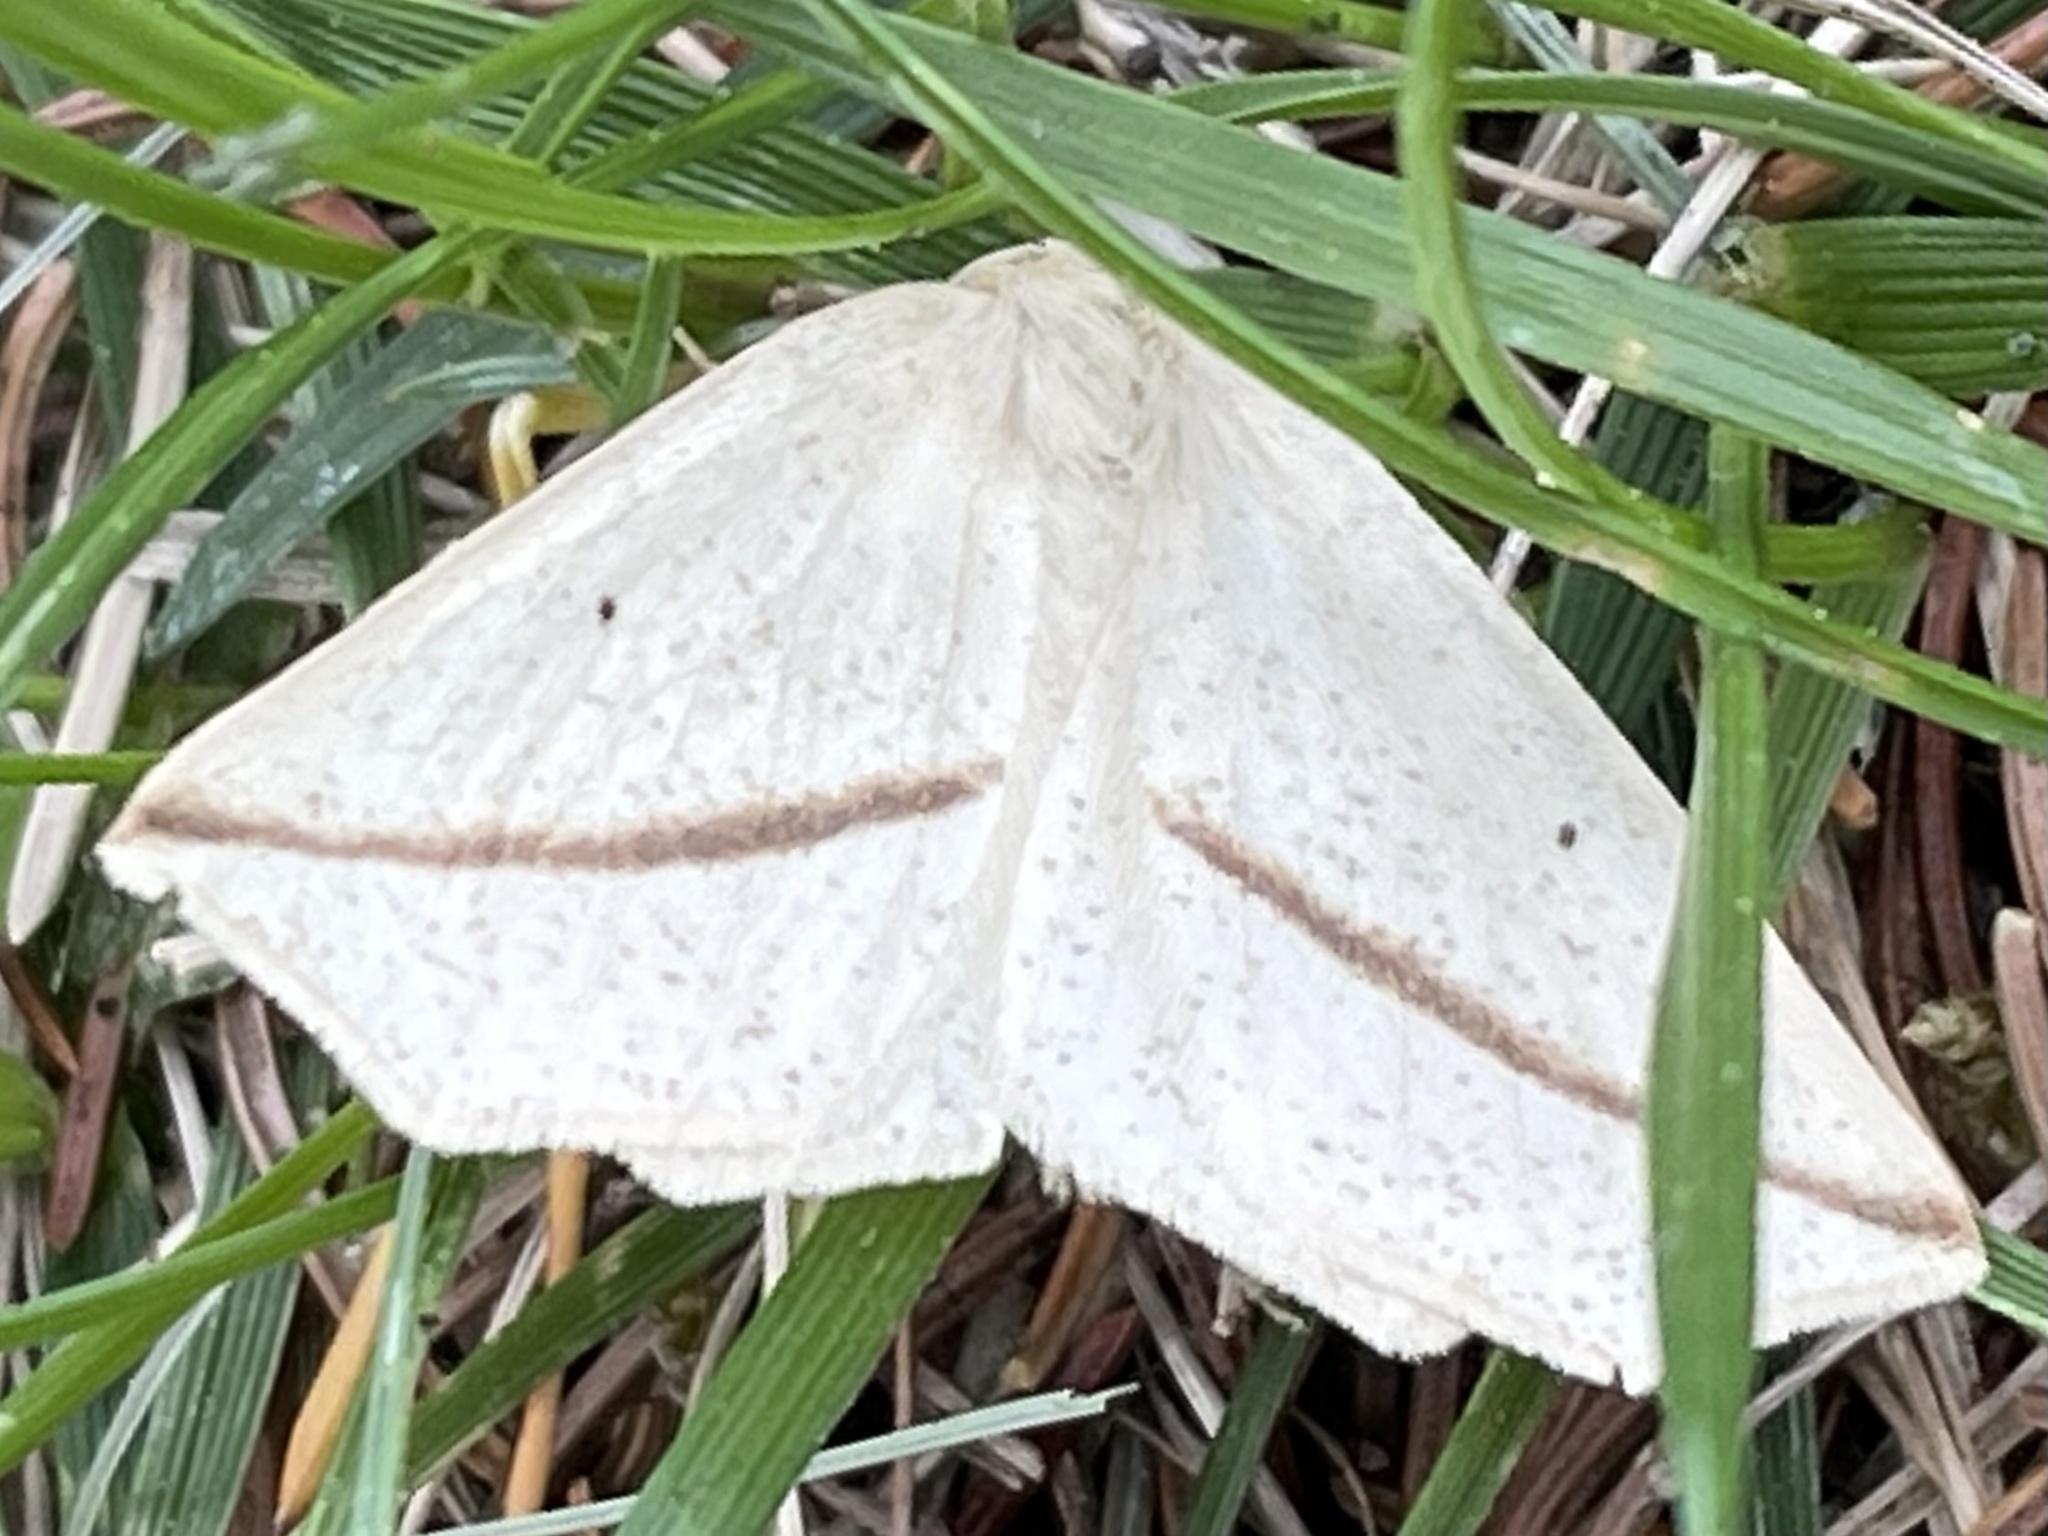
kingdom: Animalia
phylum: Arthropoda
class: Insecta
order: Lepidoptera
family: Geometridae
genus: Tetracis
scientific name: Tetracis cachexiata
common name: White slant-line
